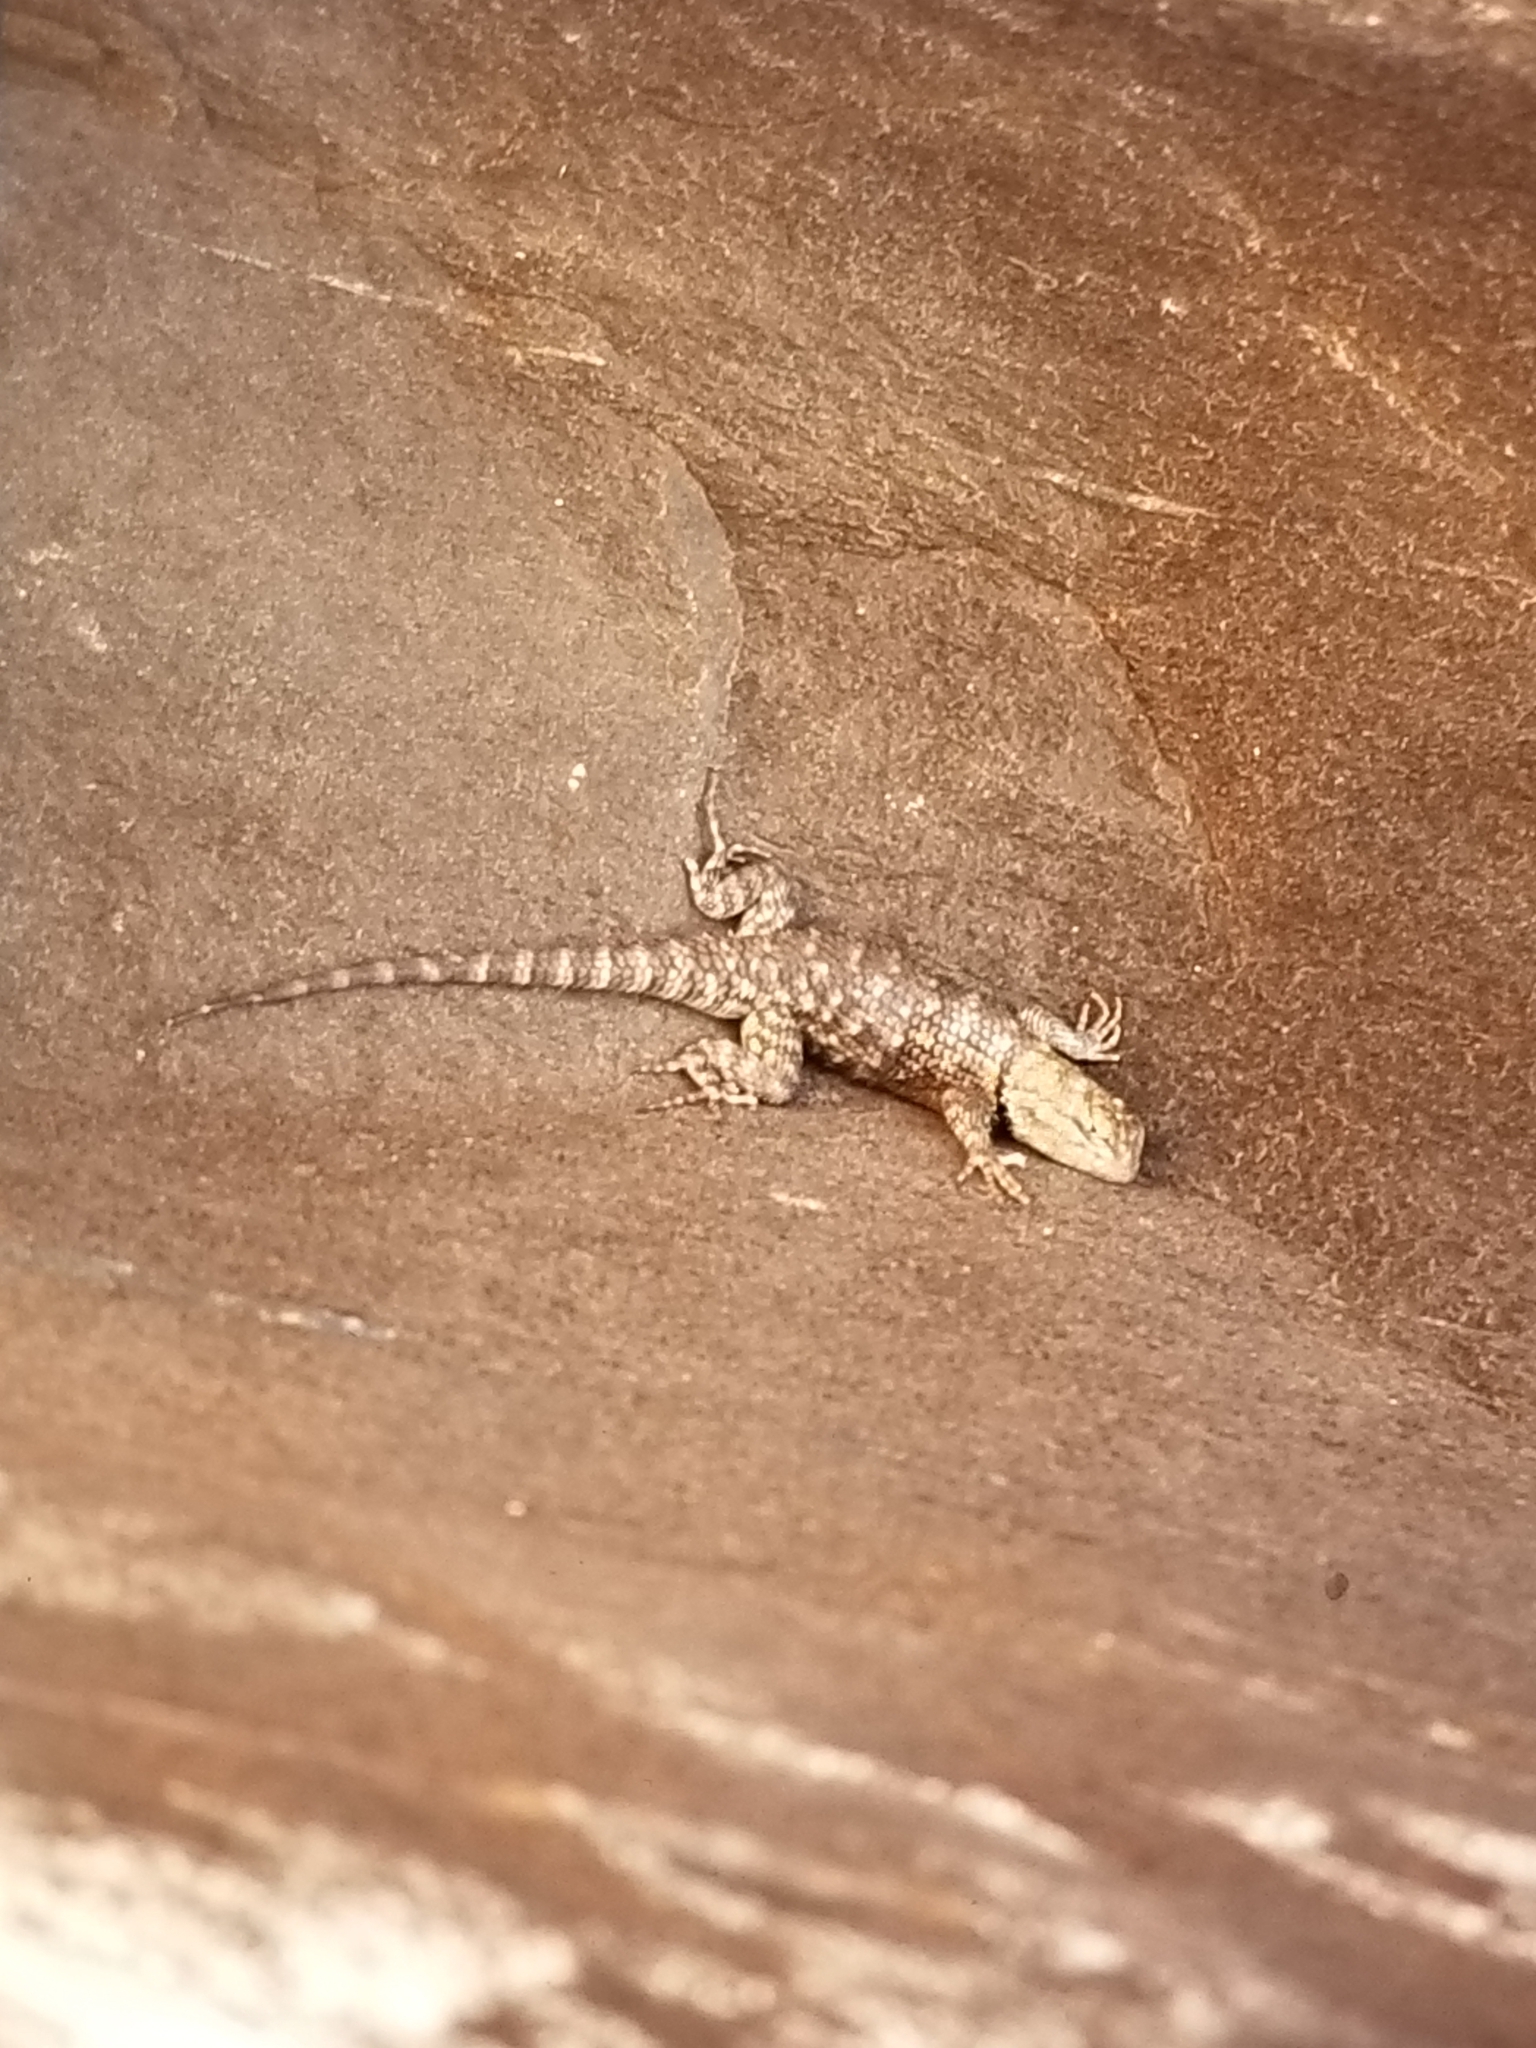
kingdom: Animalia
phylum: Chordata
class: Squamata
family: Phrynosomatidae
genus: Sceloporus
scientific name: Sceloporus magister
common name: Desert spiny lizard
